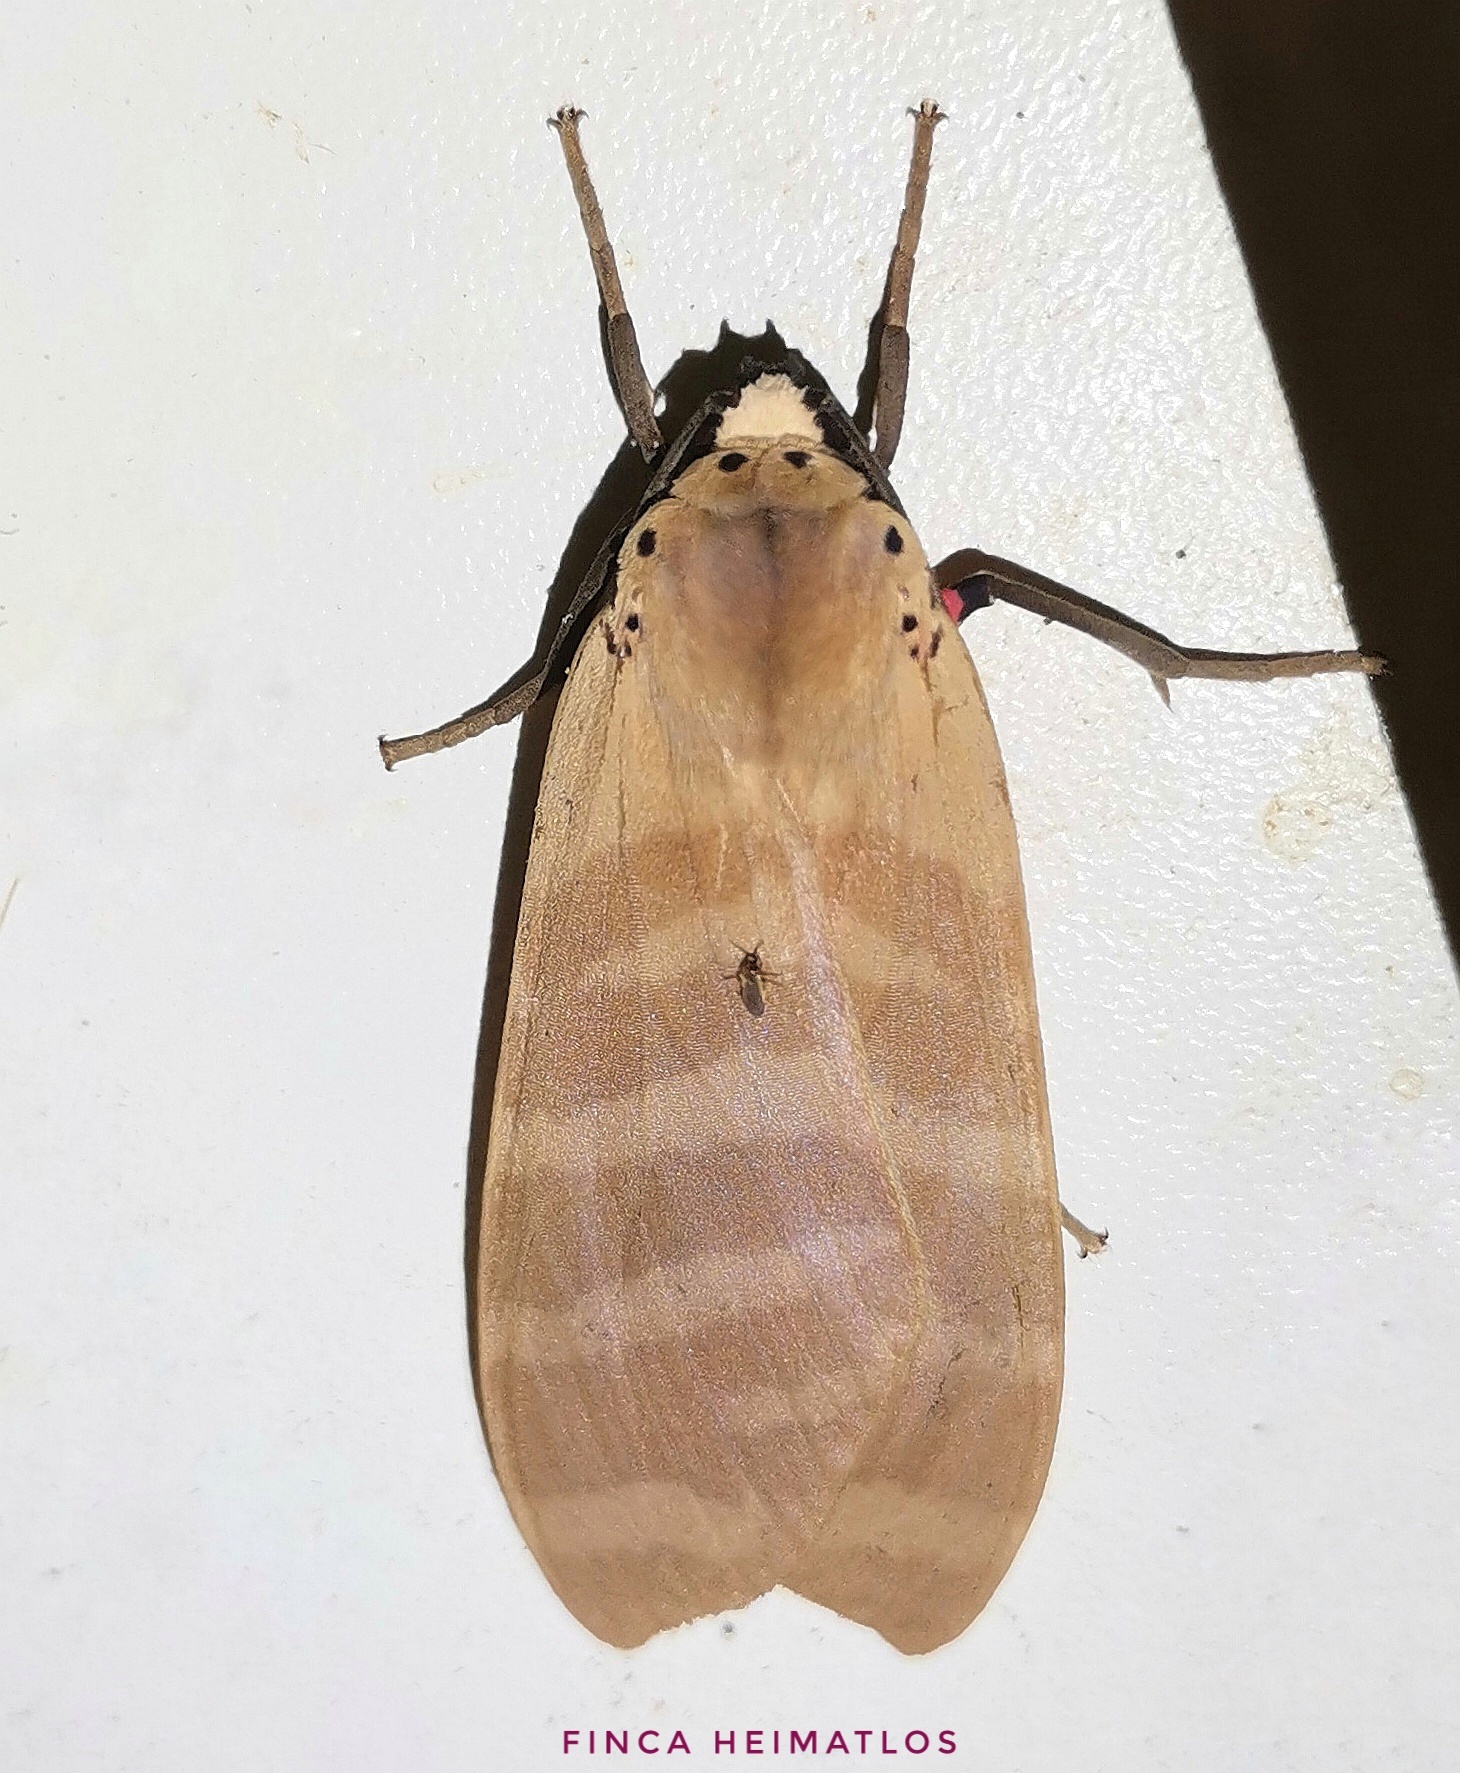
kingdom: Animalia
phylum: Arthropoda
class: Insecta
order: Lepidoptera
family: Erebidae
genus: Elysius
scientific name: Elysius hampsoni
